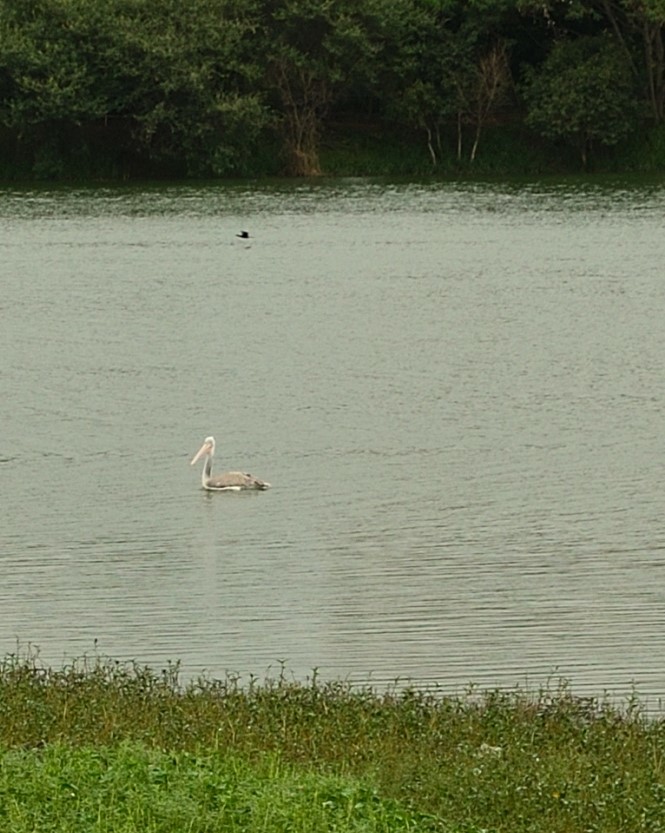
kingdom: Animalia
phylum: Chordata
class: Aves
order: Pelecaniformes
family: Pelecanidae
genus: Pelecanus
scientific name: Pelecanus philippensis
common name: Spot-billed pelican
